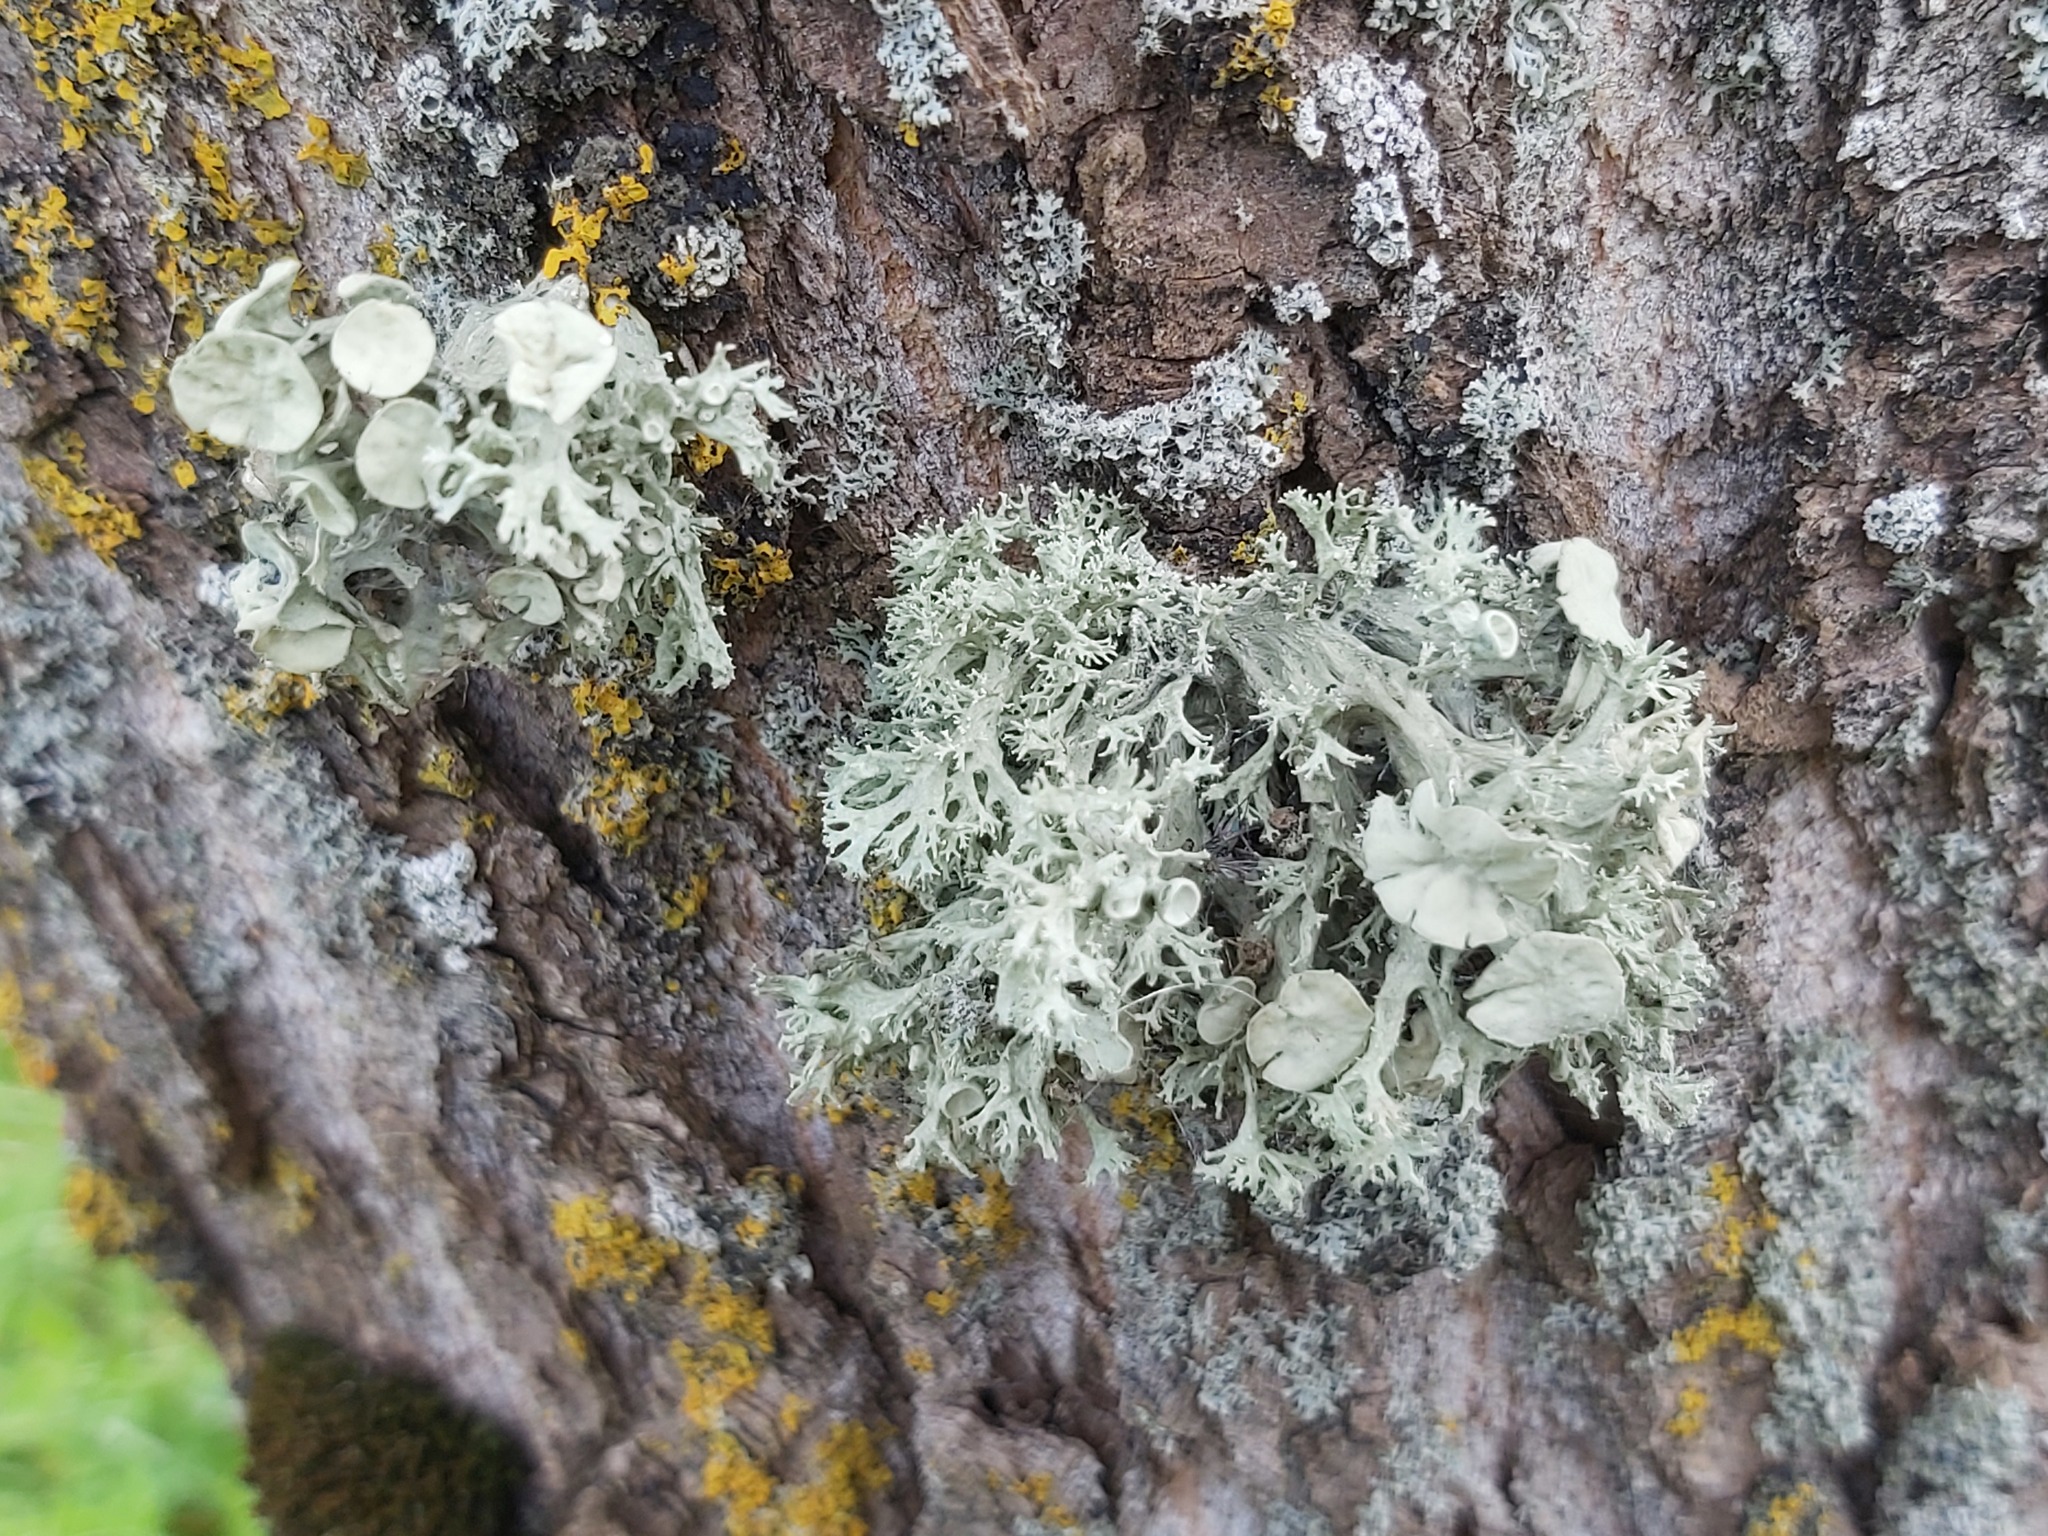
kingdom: Fungi
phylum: Ascomycota
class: Lecanoromycetes
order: Lecanorales
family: Ramalinaceae
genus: Ramalina
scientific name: Ramalina fastigiata
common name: Dotted ribbon lichen
